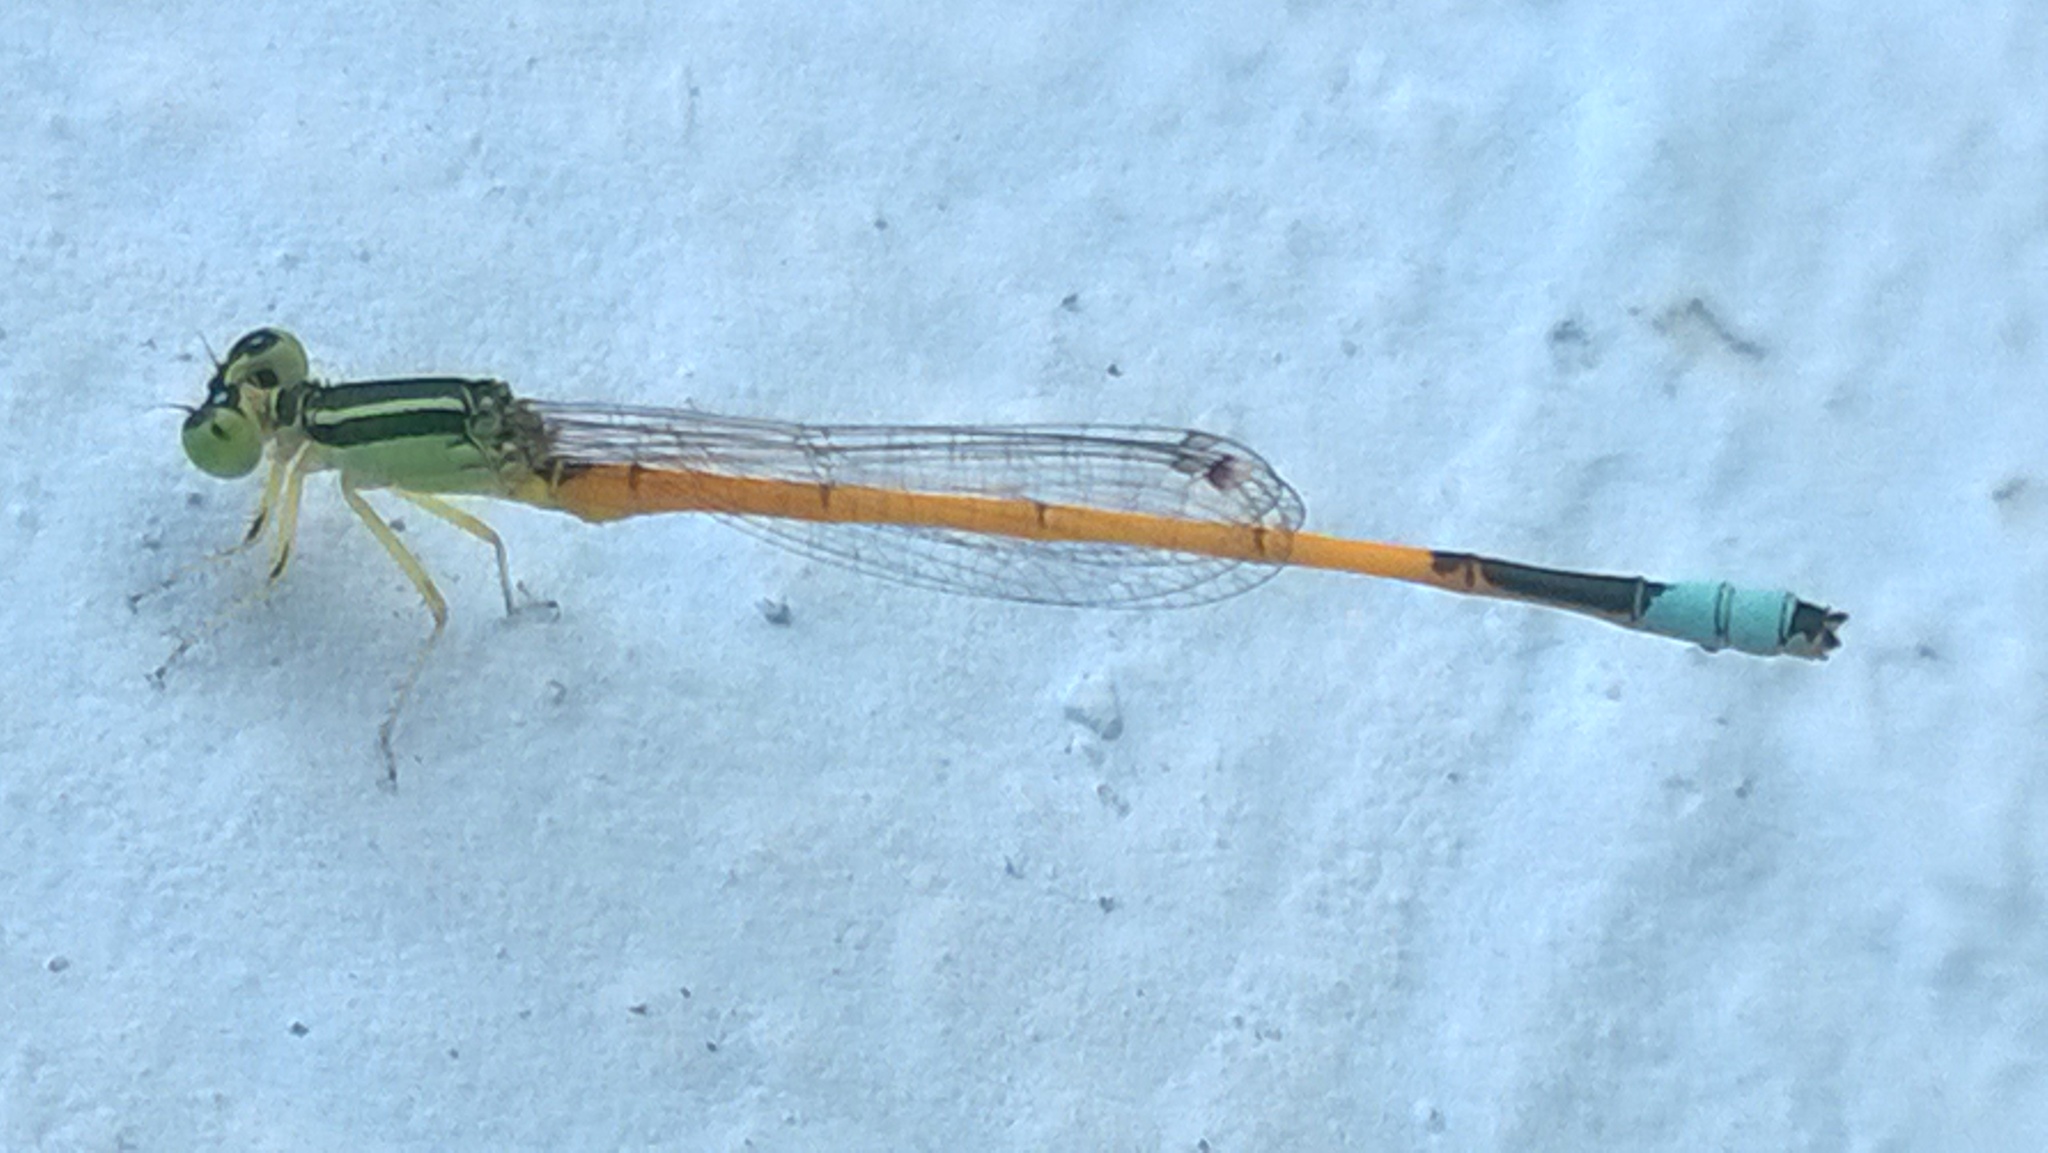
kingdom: Animalia
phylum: Arthropoda
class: Insecta
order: Odonata
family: Coenagrionidae
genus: Ischnura
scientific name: Ischnura rubilio
